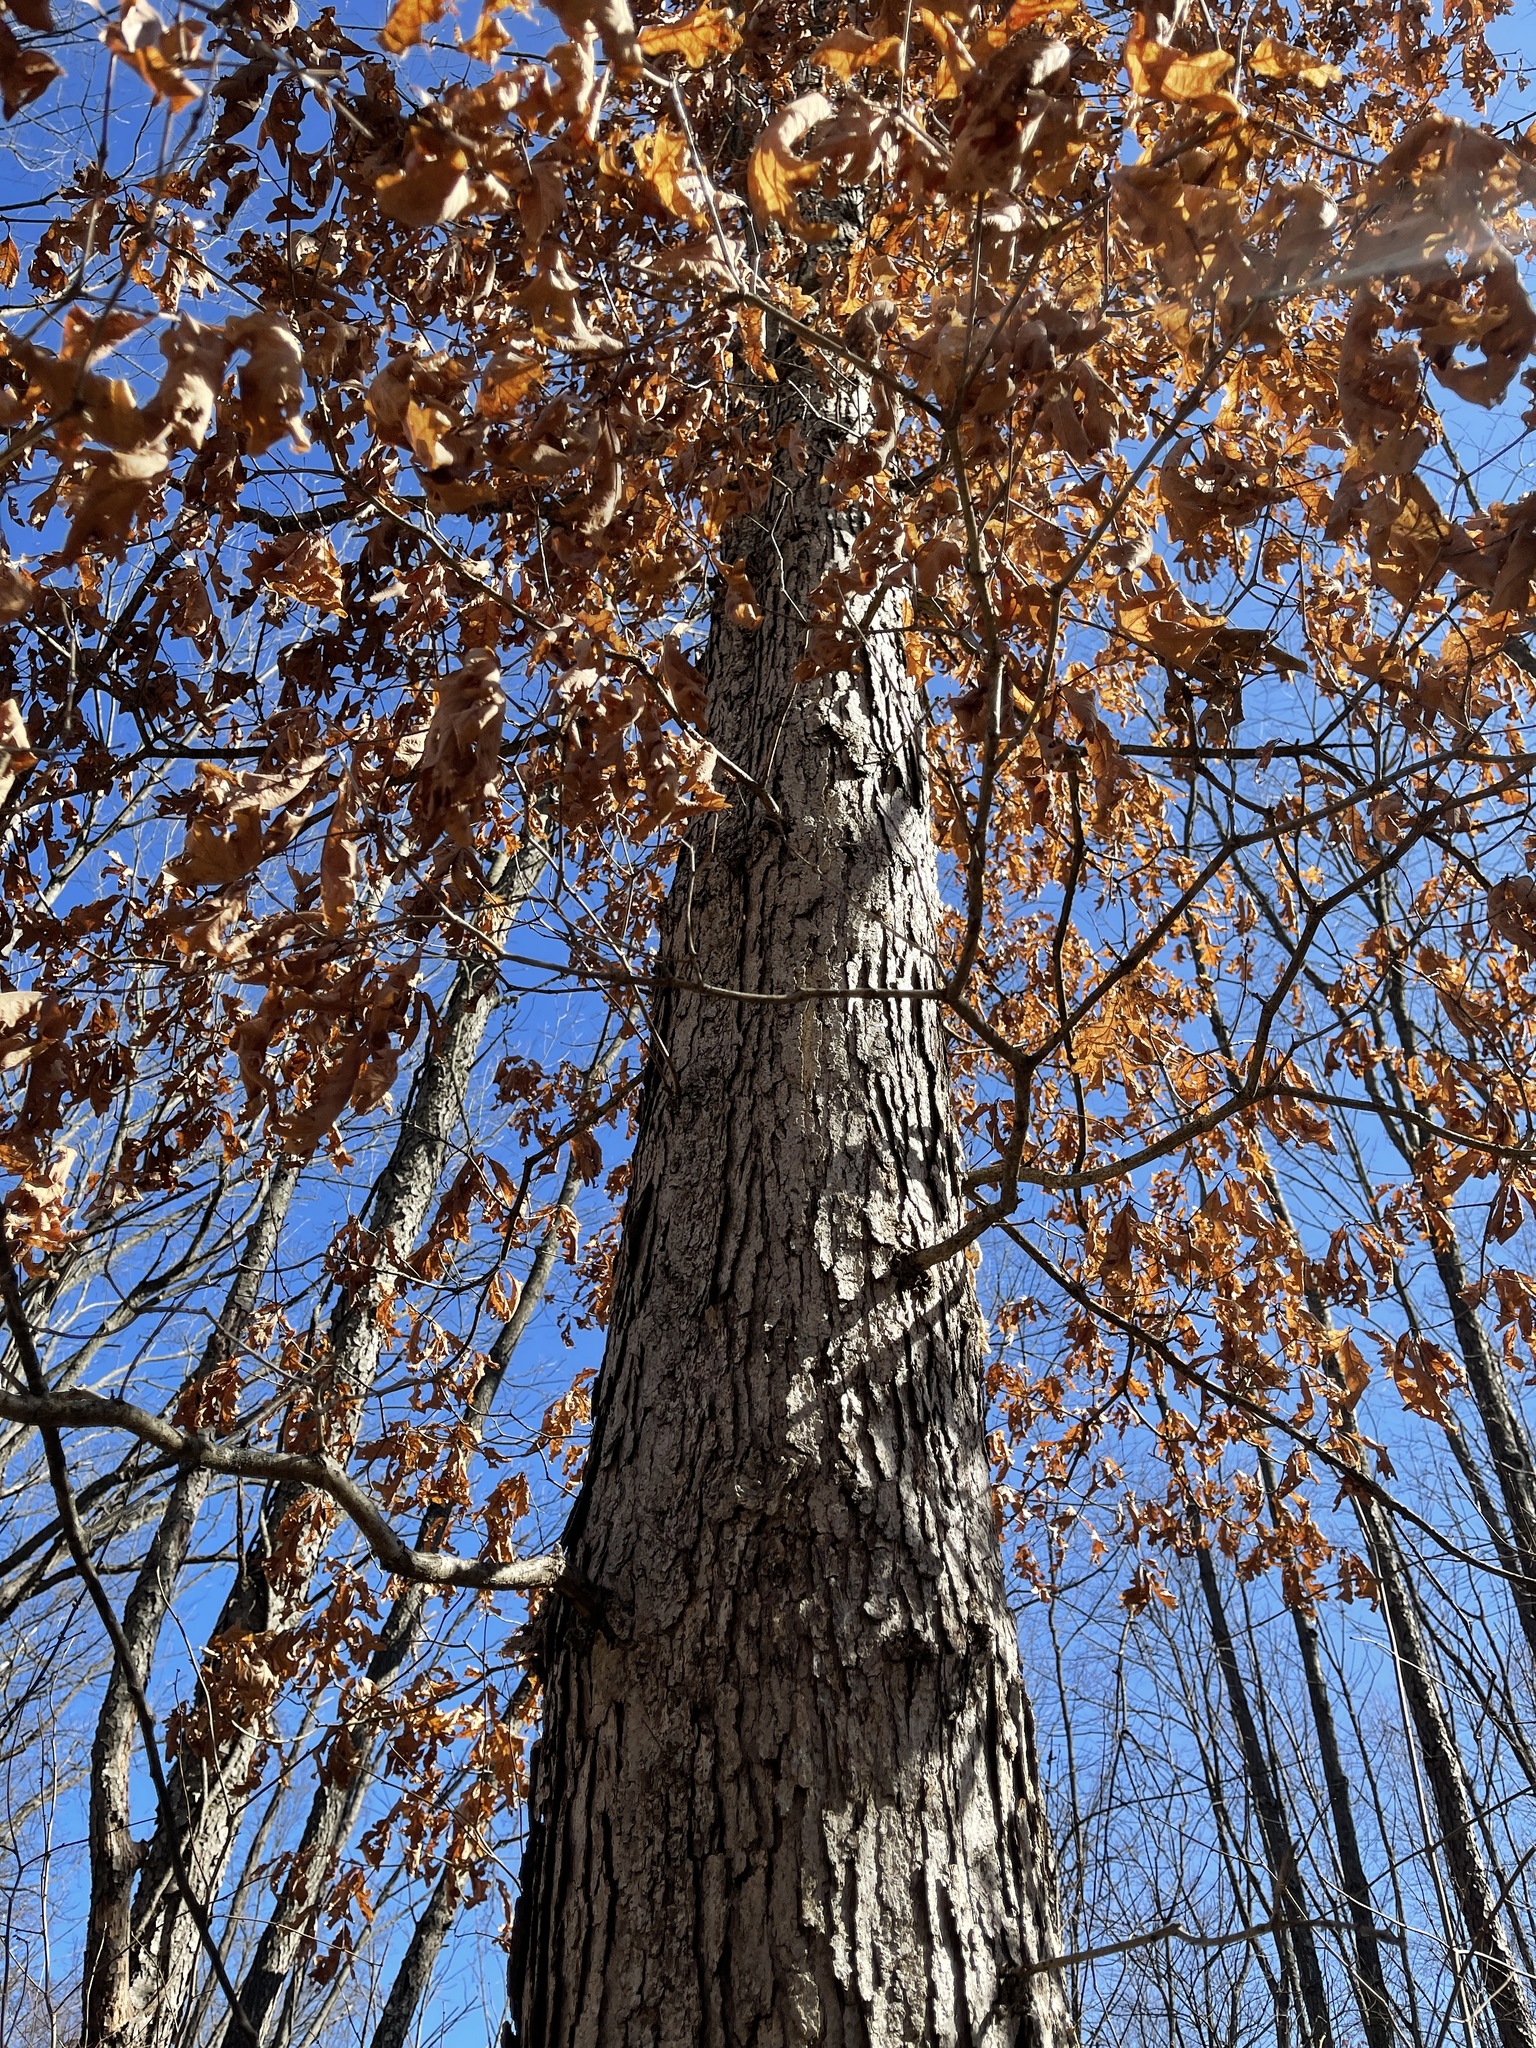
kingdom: Plantae
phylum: Tracheophyta
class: Magnoliopsida
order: Fagales
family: Fagaceae
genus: Quercus
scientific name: Quercus alba
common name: White oak
